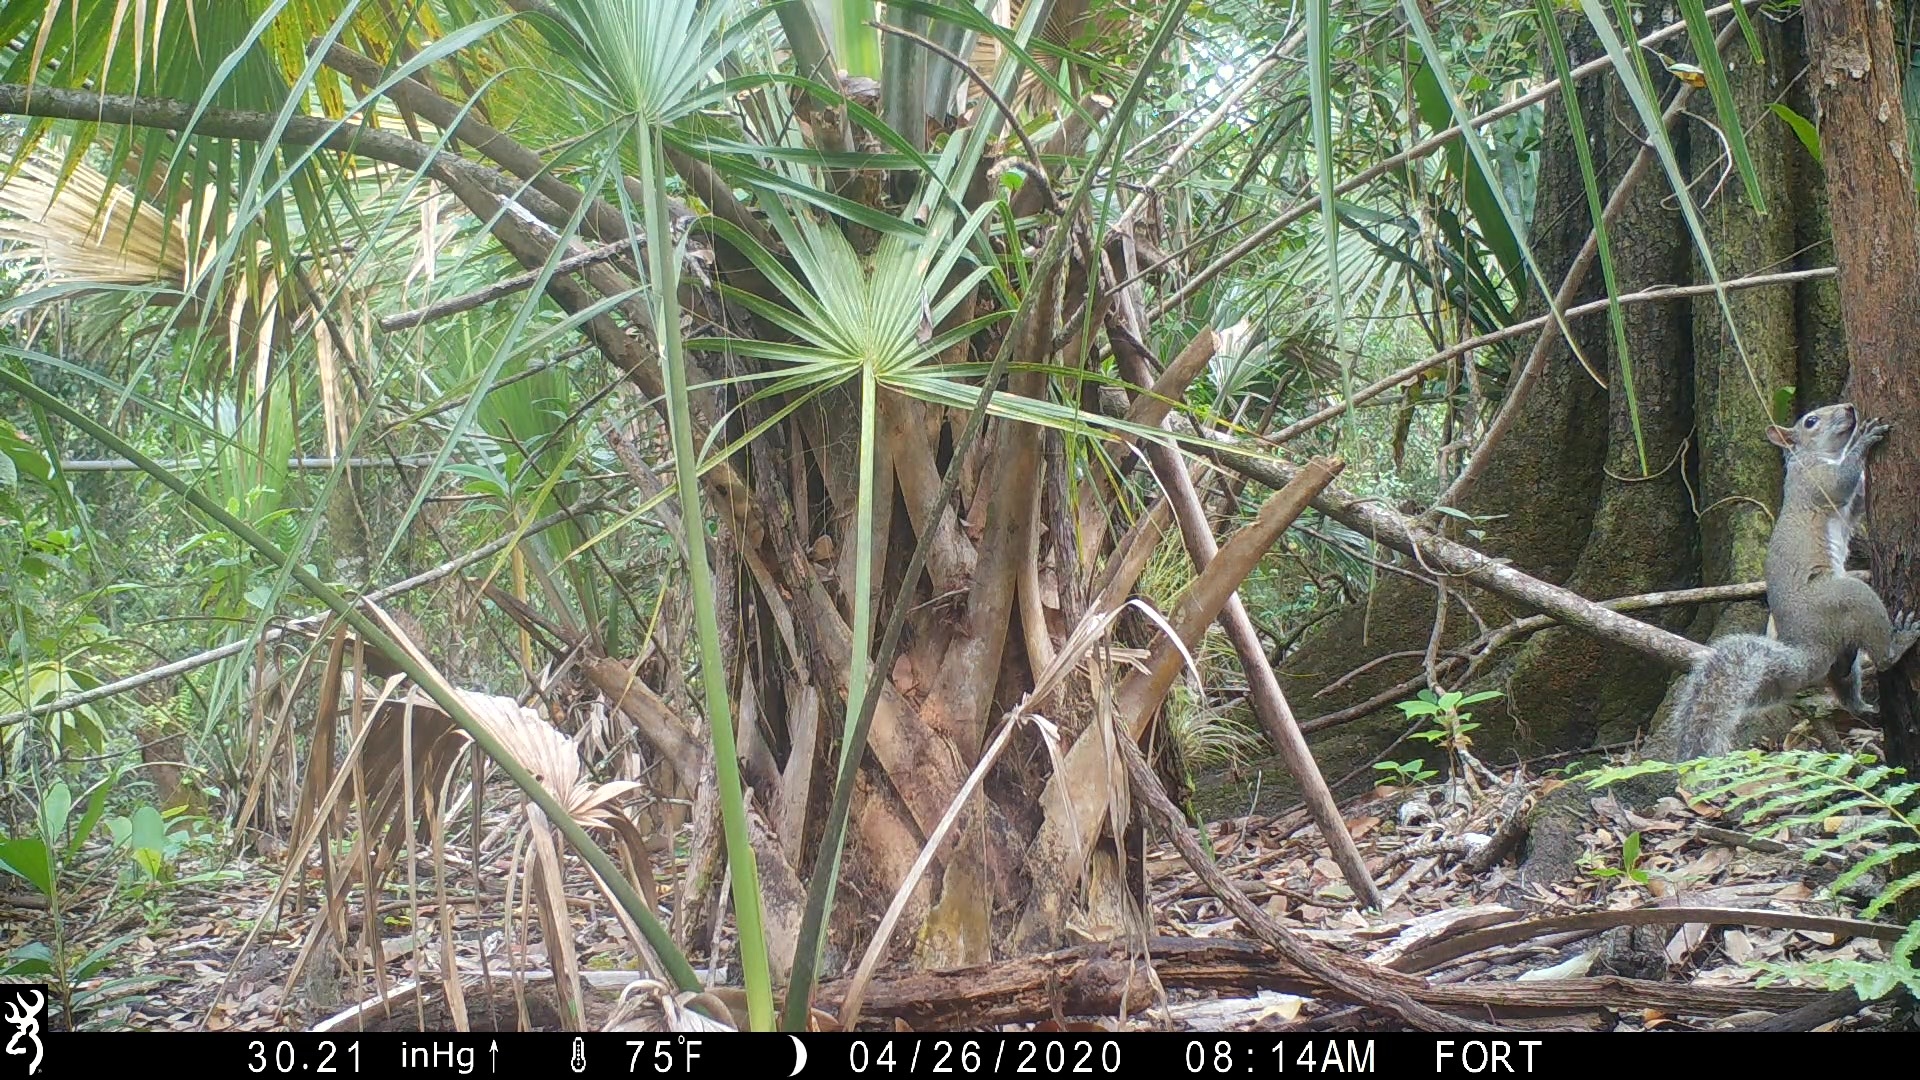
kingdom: Animalia
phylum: Chordata
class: Mammalia
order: Rodentia
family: Sciuridae
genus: Sciurus
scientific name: Sciurus carolinensis
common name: Eastern gray squirrel
